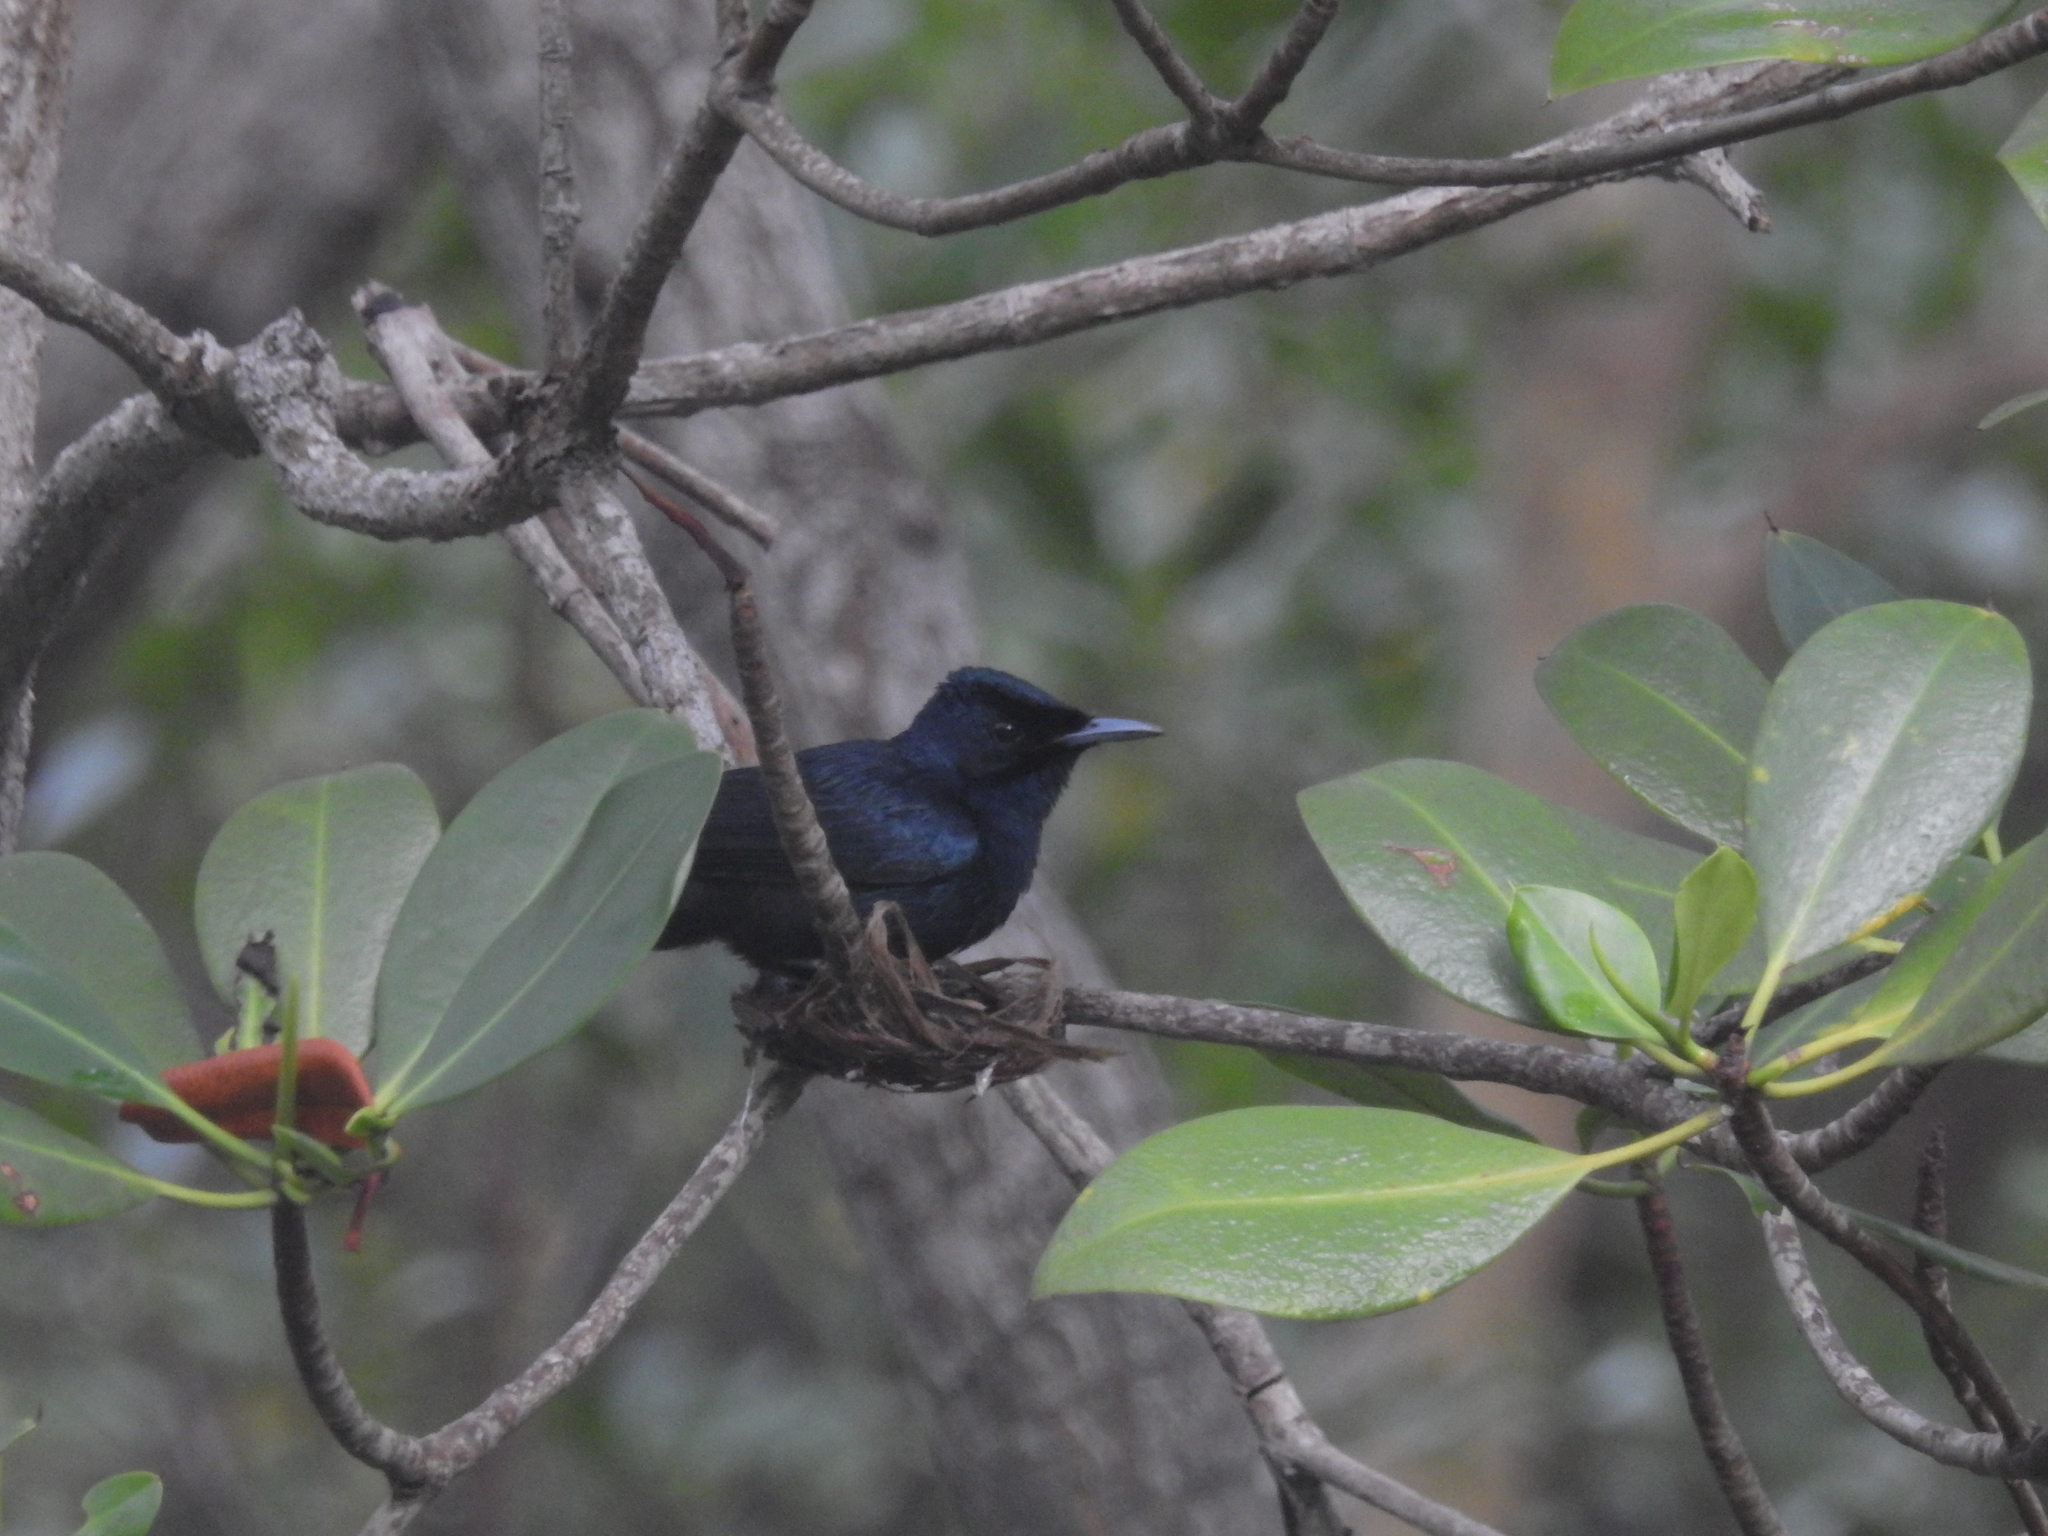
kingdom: Animalia
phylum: Chordata
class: Aves
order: Passeriformes
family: Monarchidae
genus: Myiagra
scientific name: Myiagra alecto
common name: Shining flycatcher
